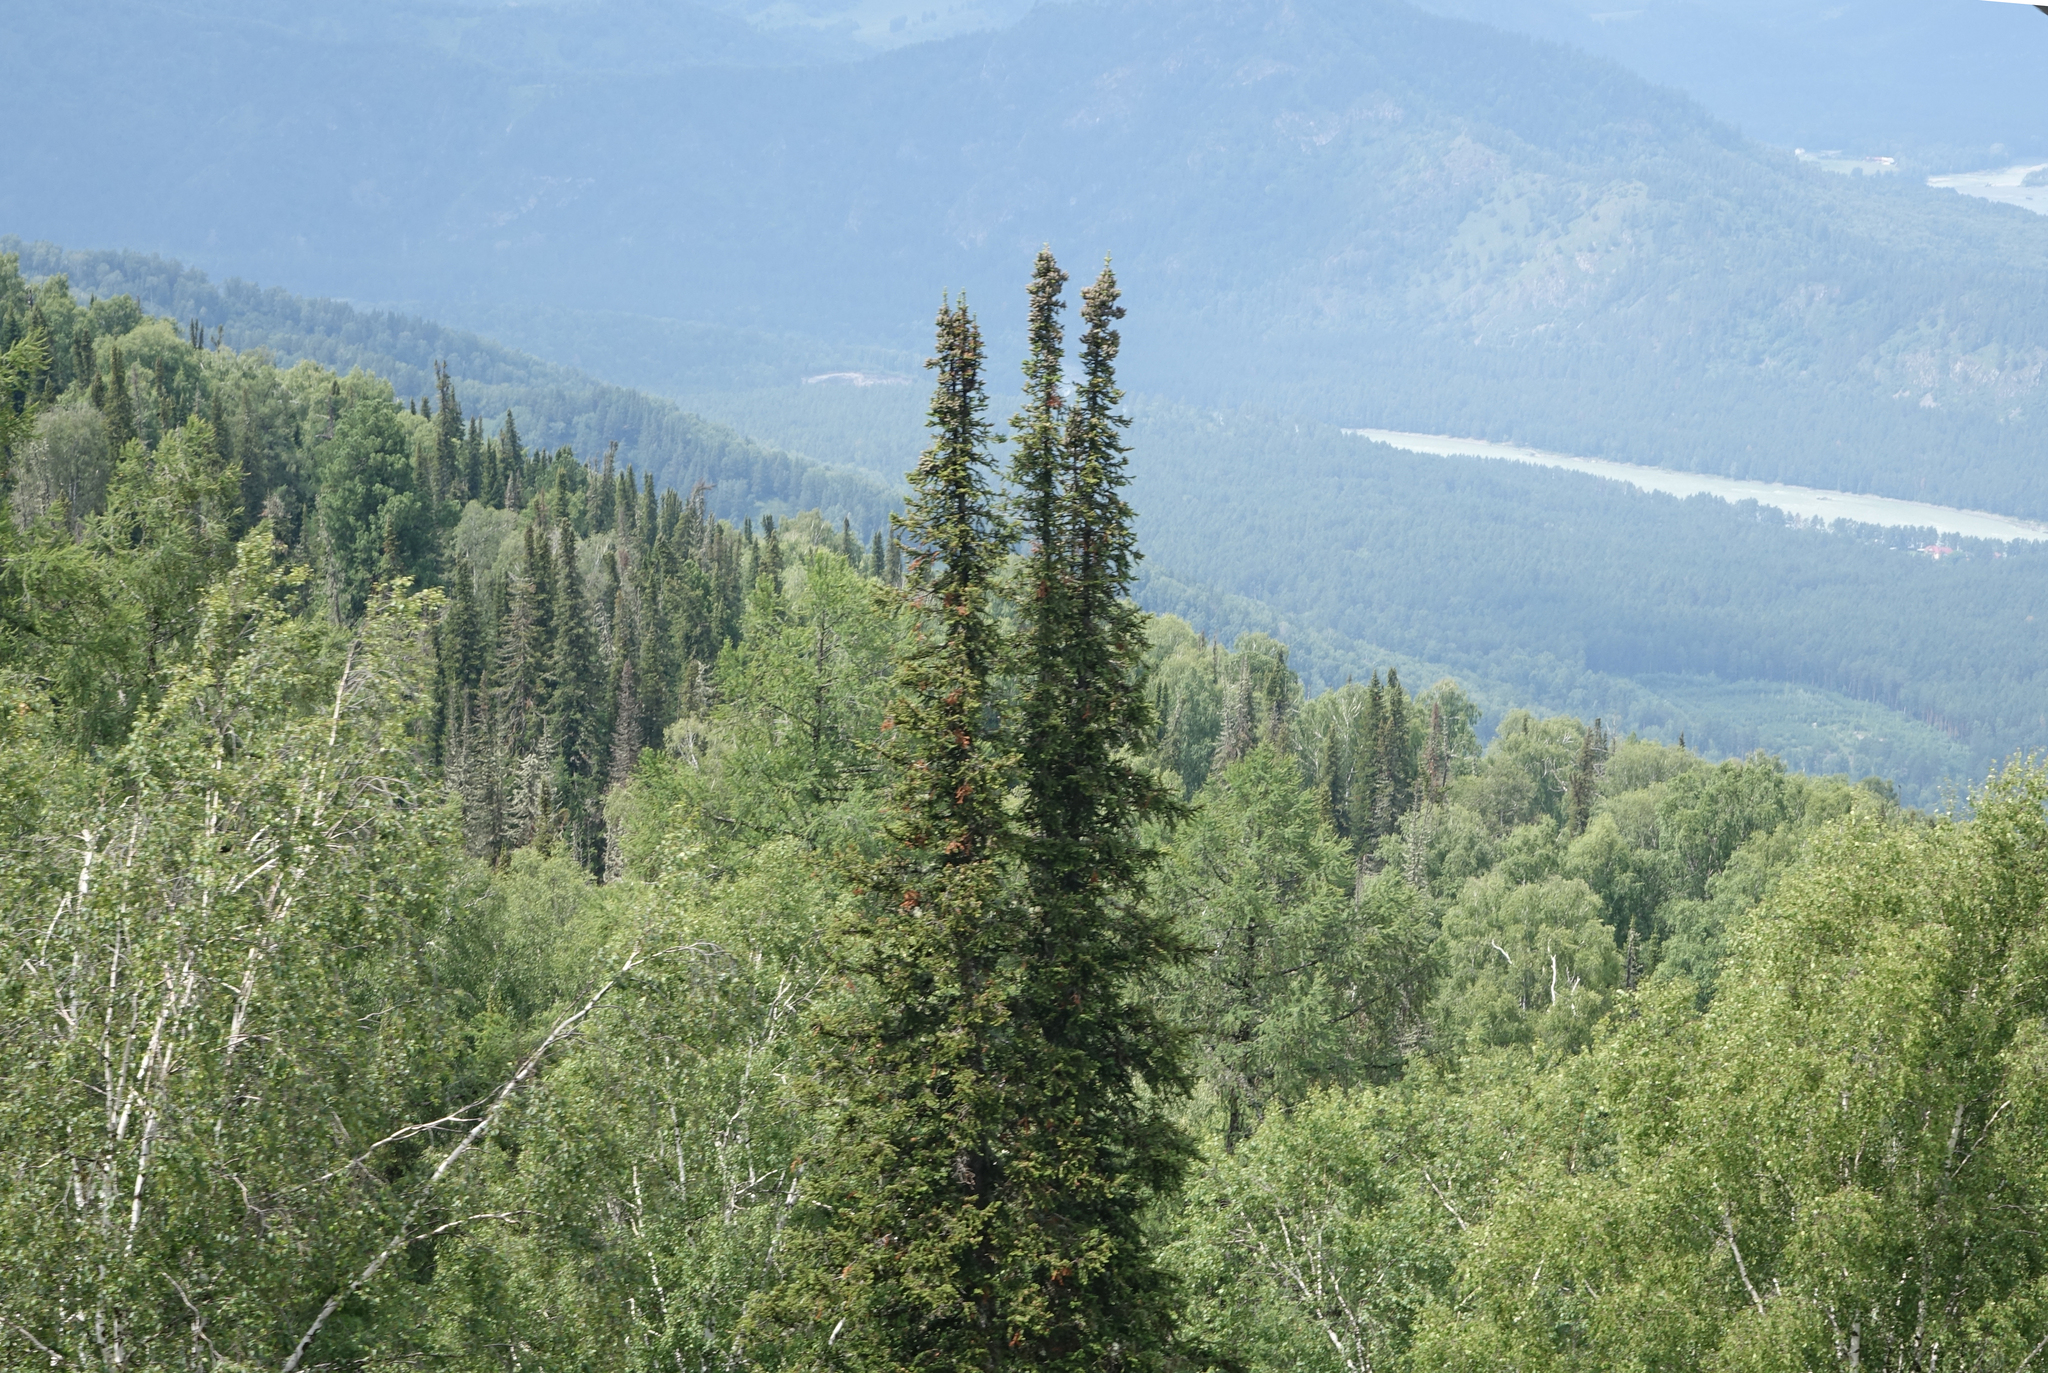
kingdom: Plantae
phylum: Tracheophyta
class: Pinopsida
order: Pinales
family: Pinaceae
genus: Abies
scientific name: Abies sibirica
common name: Siberian fir
